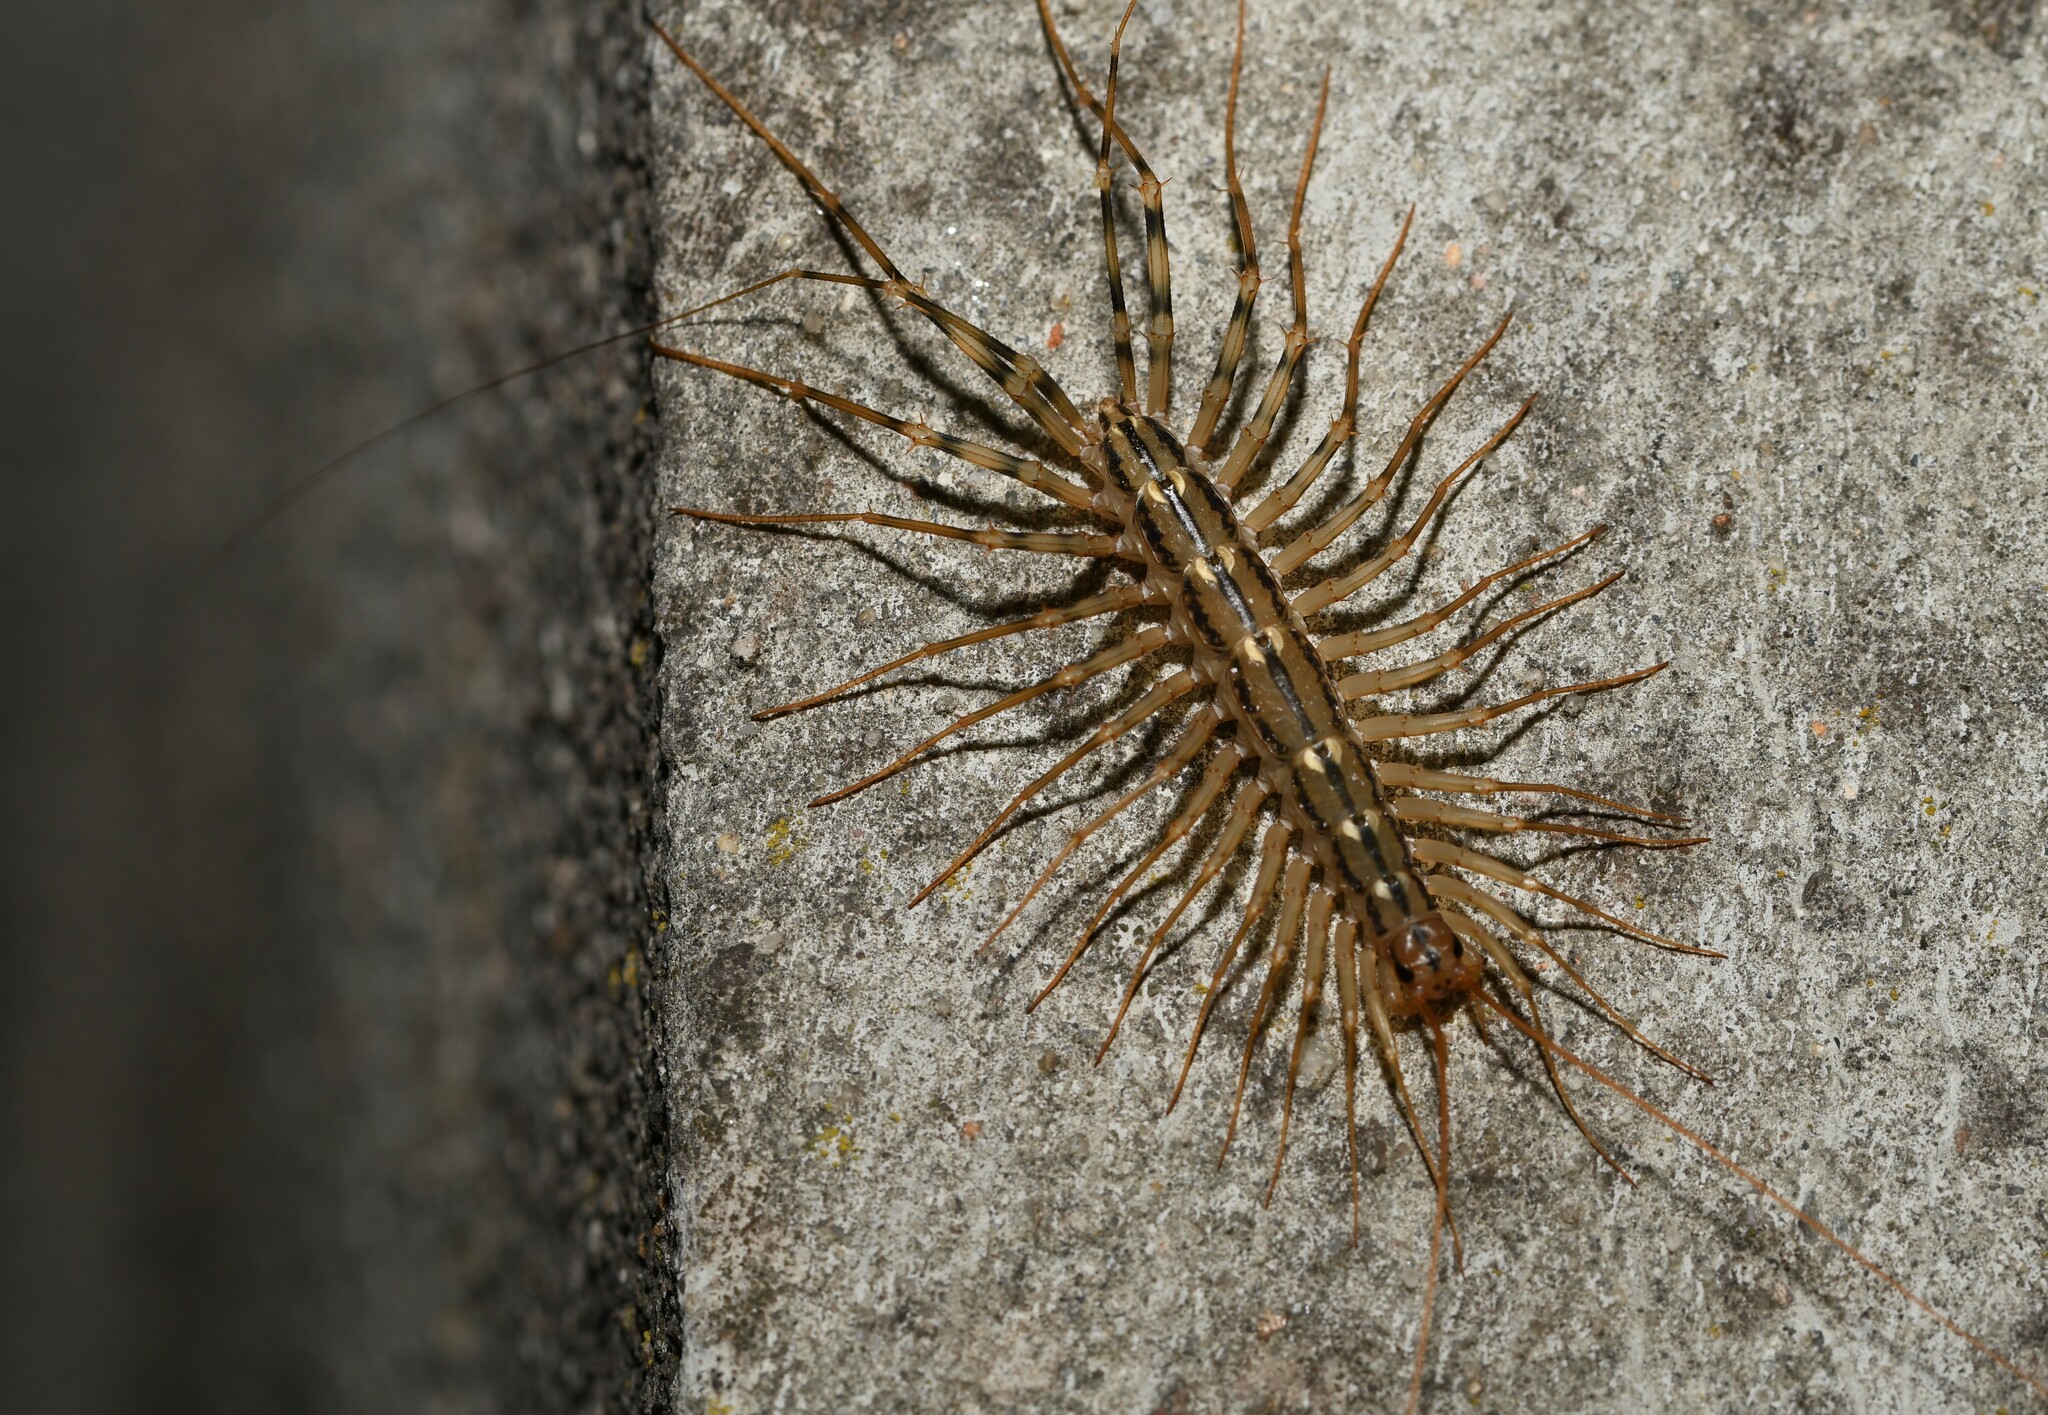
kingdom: Animalia
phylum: Arthropoda
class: Chilopoda
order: Scutigeromorpha
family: Scutigeridae
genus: Scutigera
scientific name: Scutigera coleoptrata
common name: House centipede
